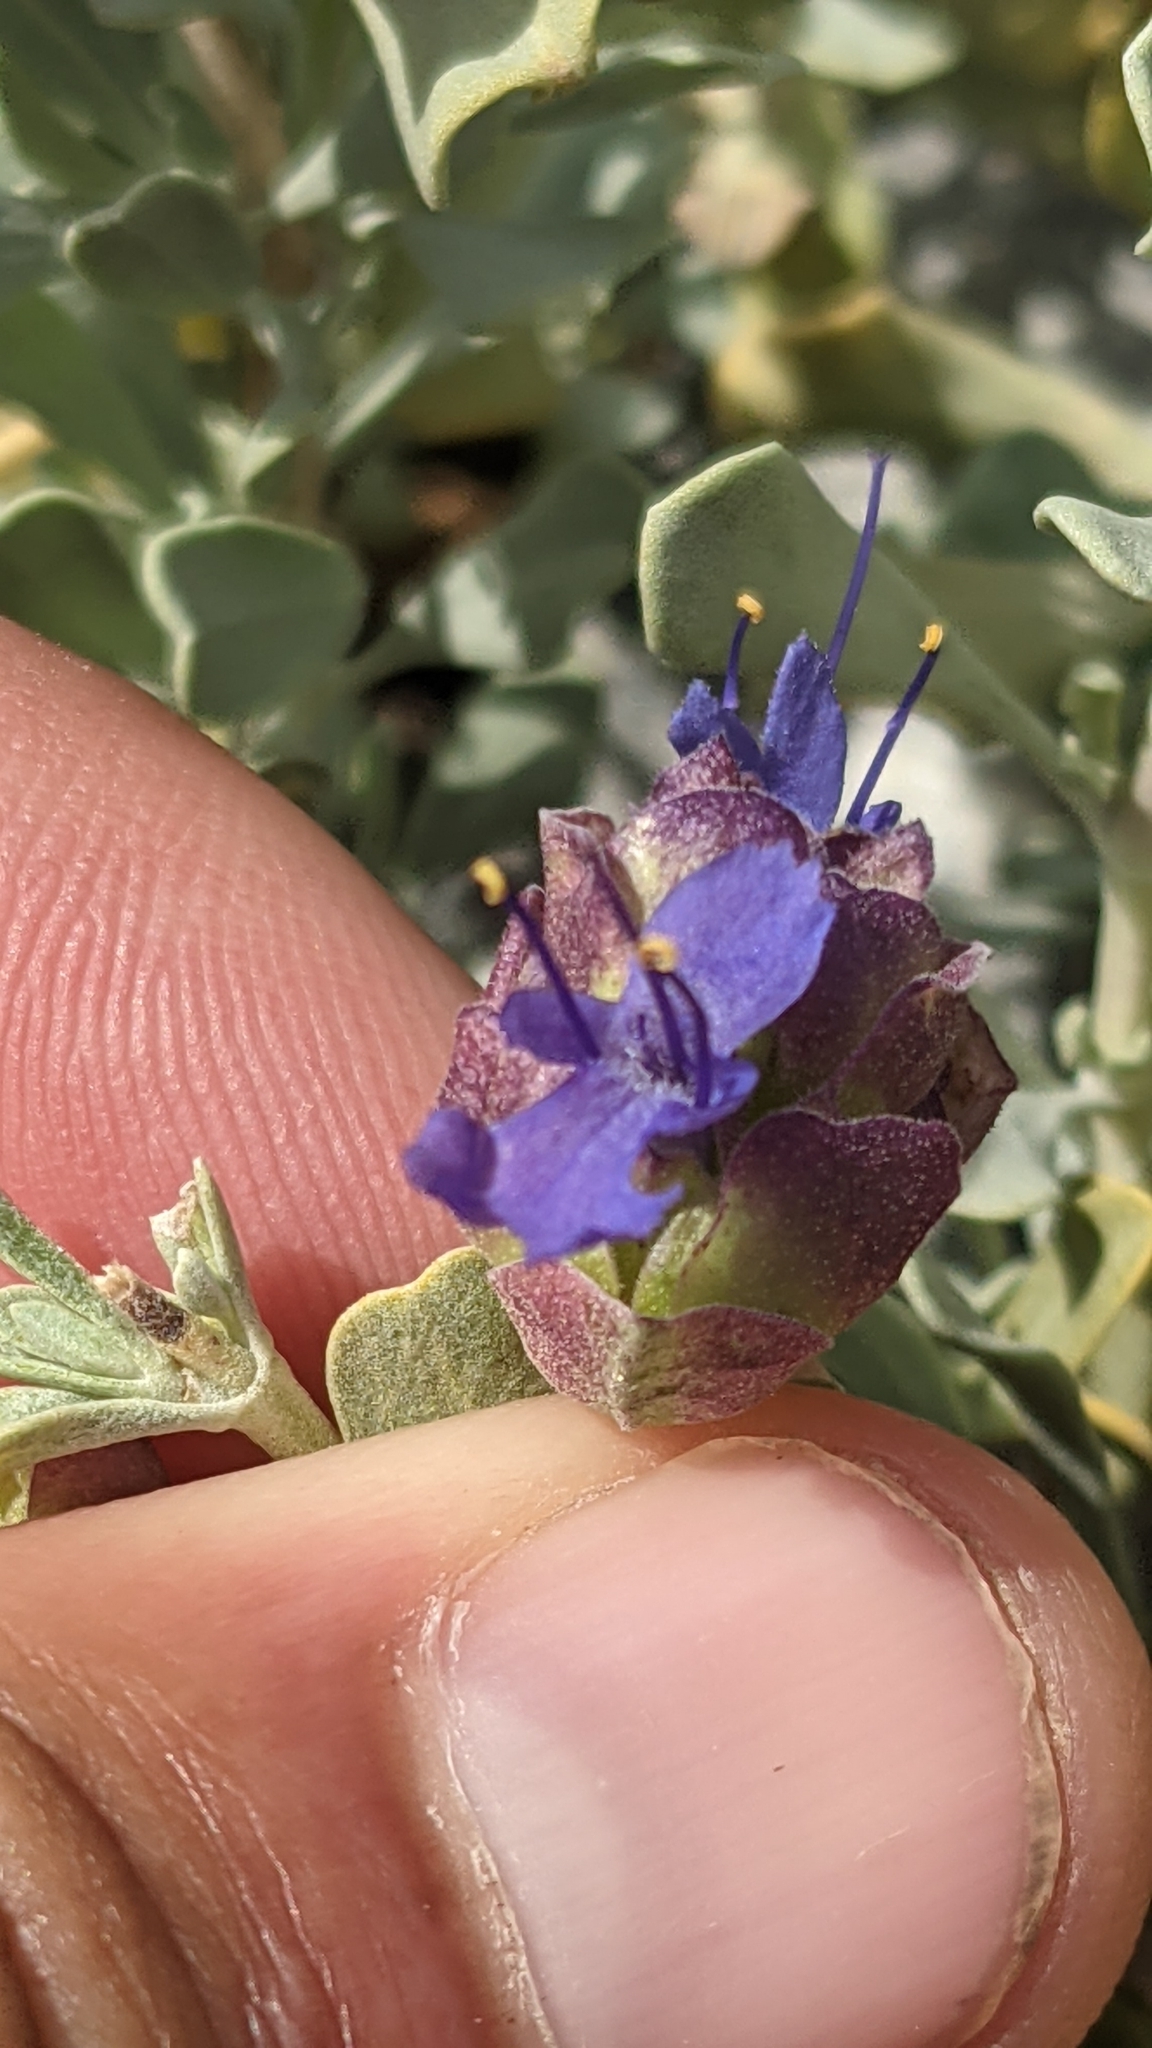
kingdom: Plantae
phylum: Tracheophyta
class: Magnoliopsida
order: Lamiales
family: Lamiaceae
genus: Salvia
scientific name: Salvia dorrii
